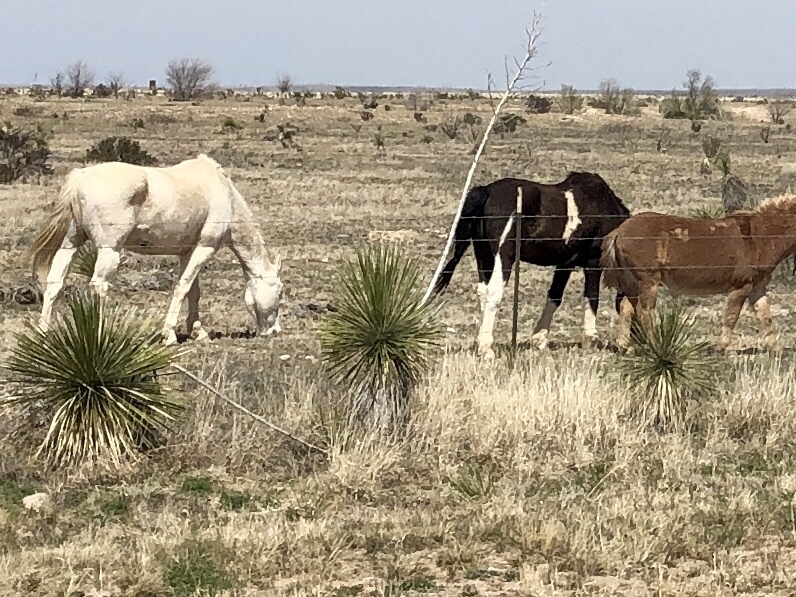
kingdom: Animalia
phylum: Chordata
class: Mammalia
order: Perissodactyla
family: Equidae
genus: Equus
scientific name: Equus caballus
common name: Horse
